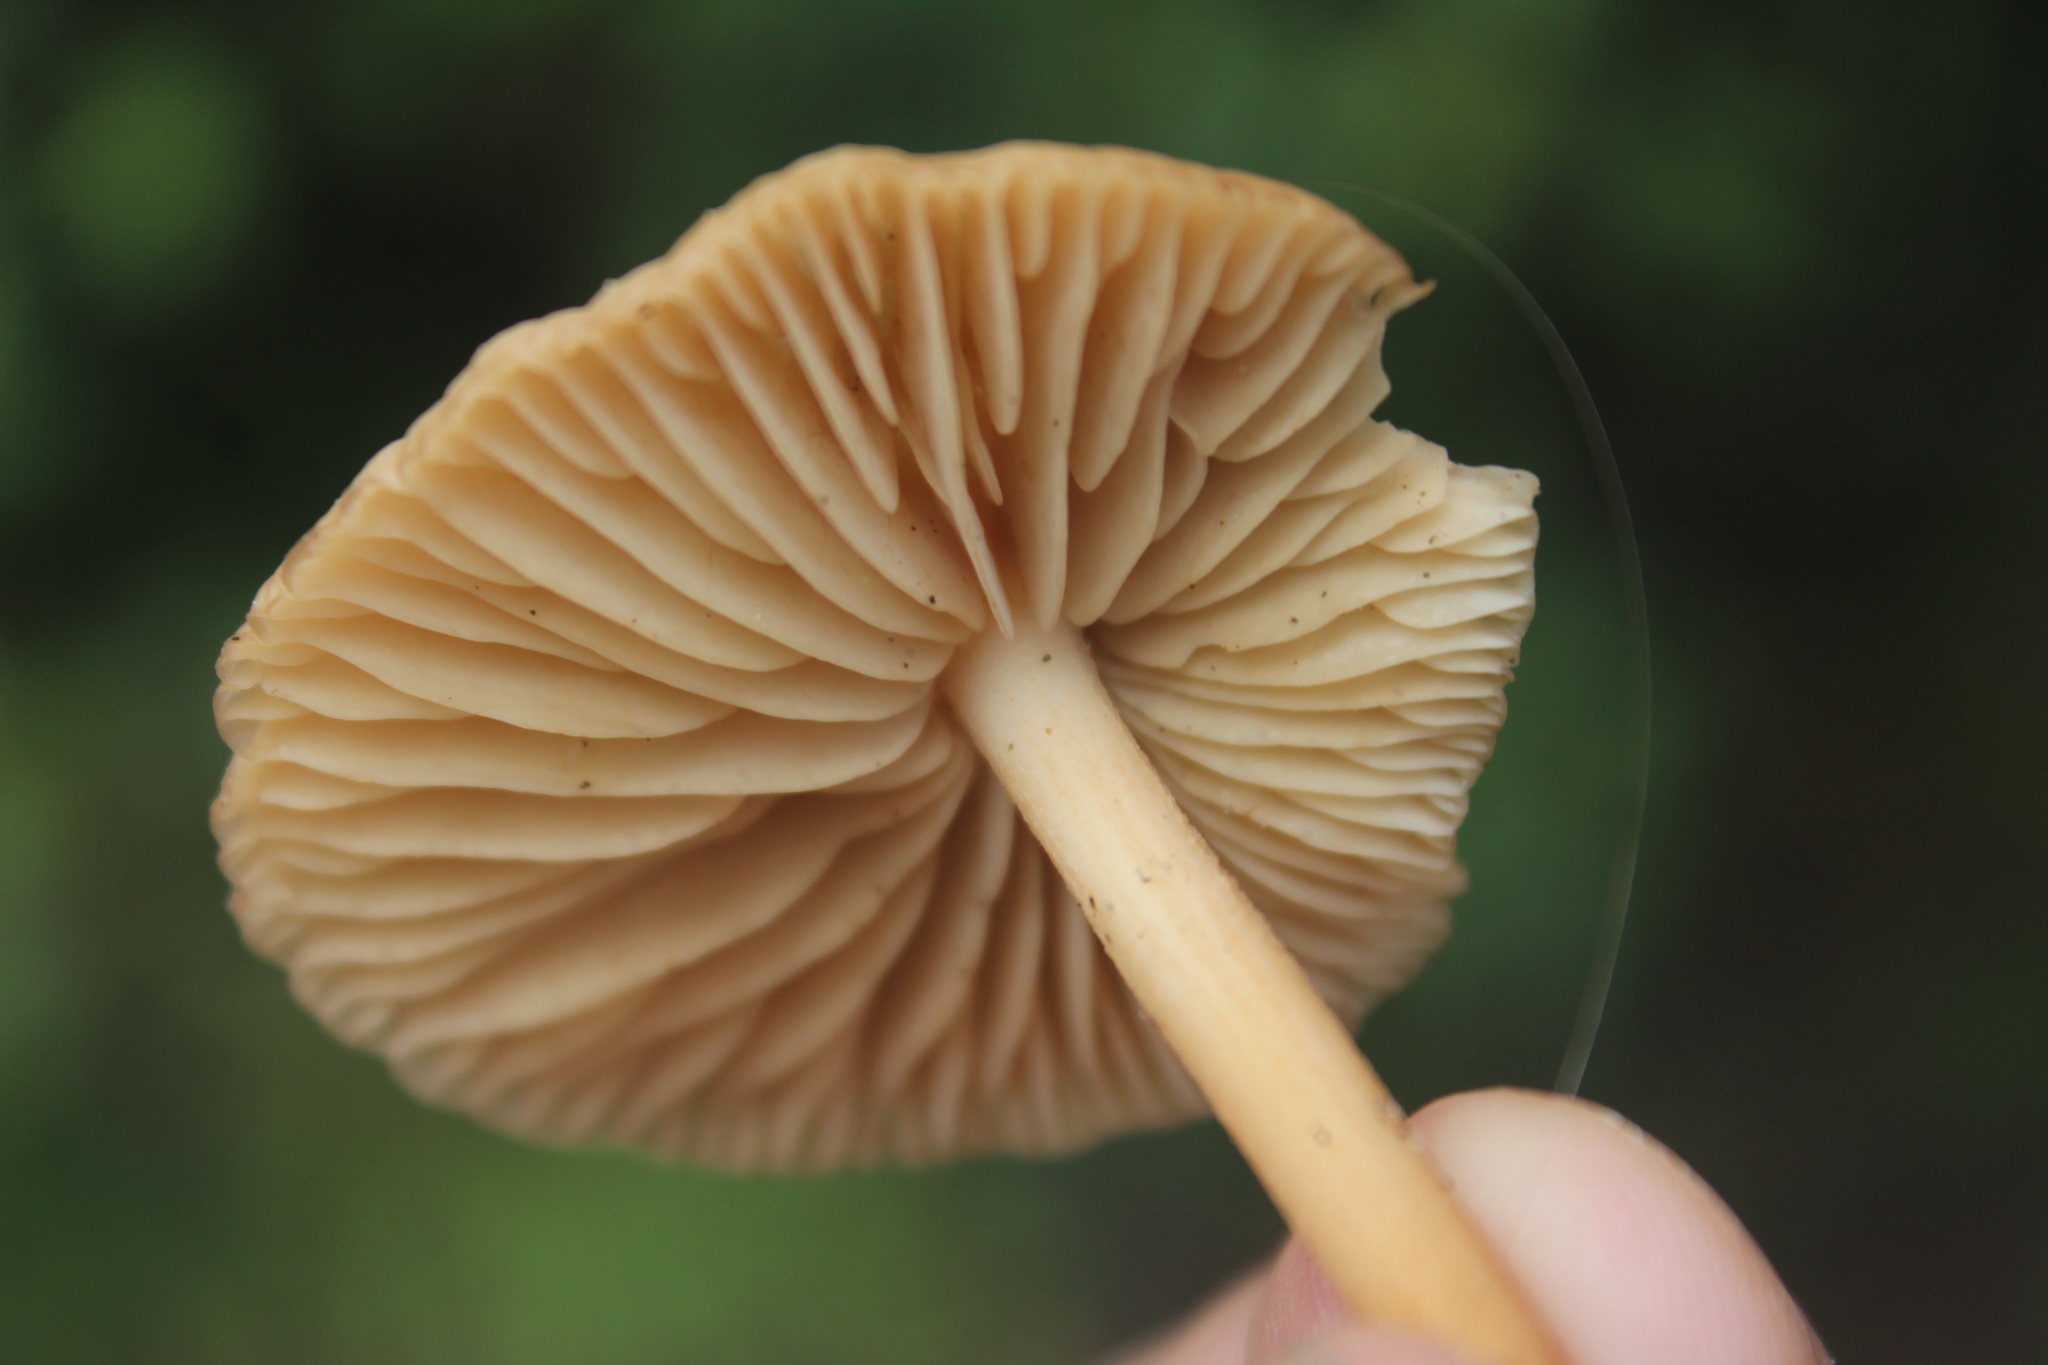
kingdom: Fungi
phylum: Basidiomycota
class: Agaricomycetes
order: Agaricales
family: Marasmiaceae
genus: Marasmius
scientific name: Marasmius oreades
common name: Fairy ring champignon
